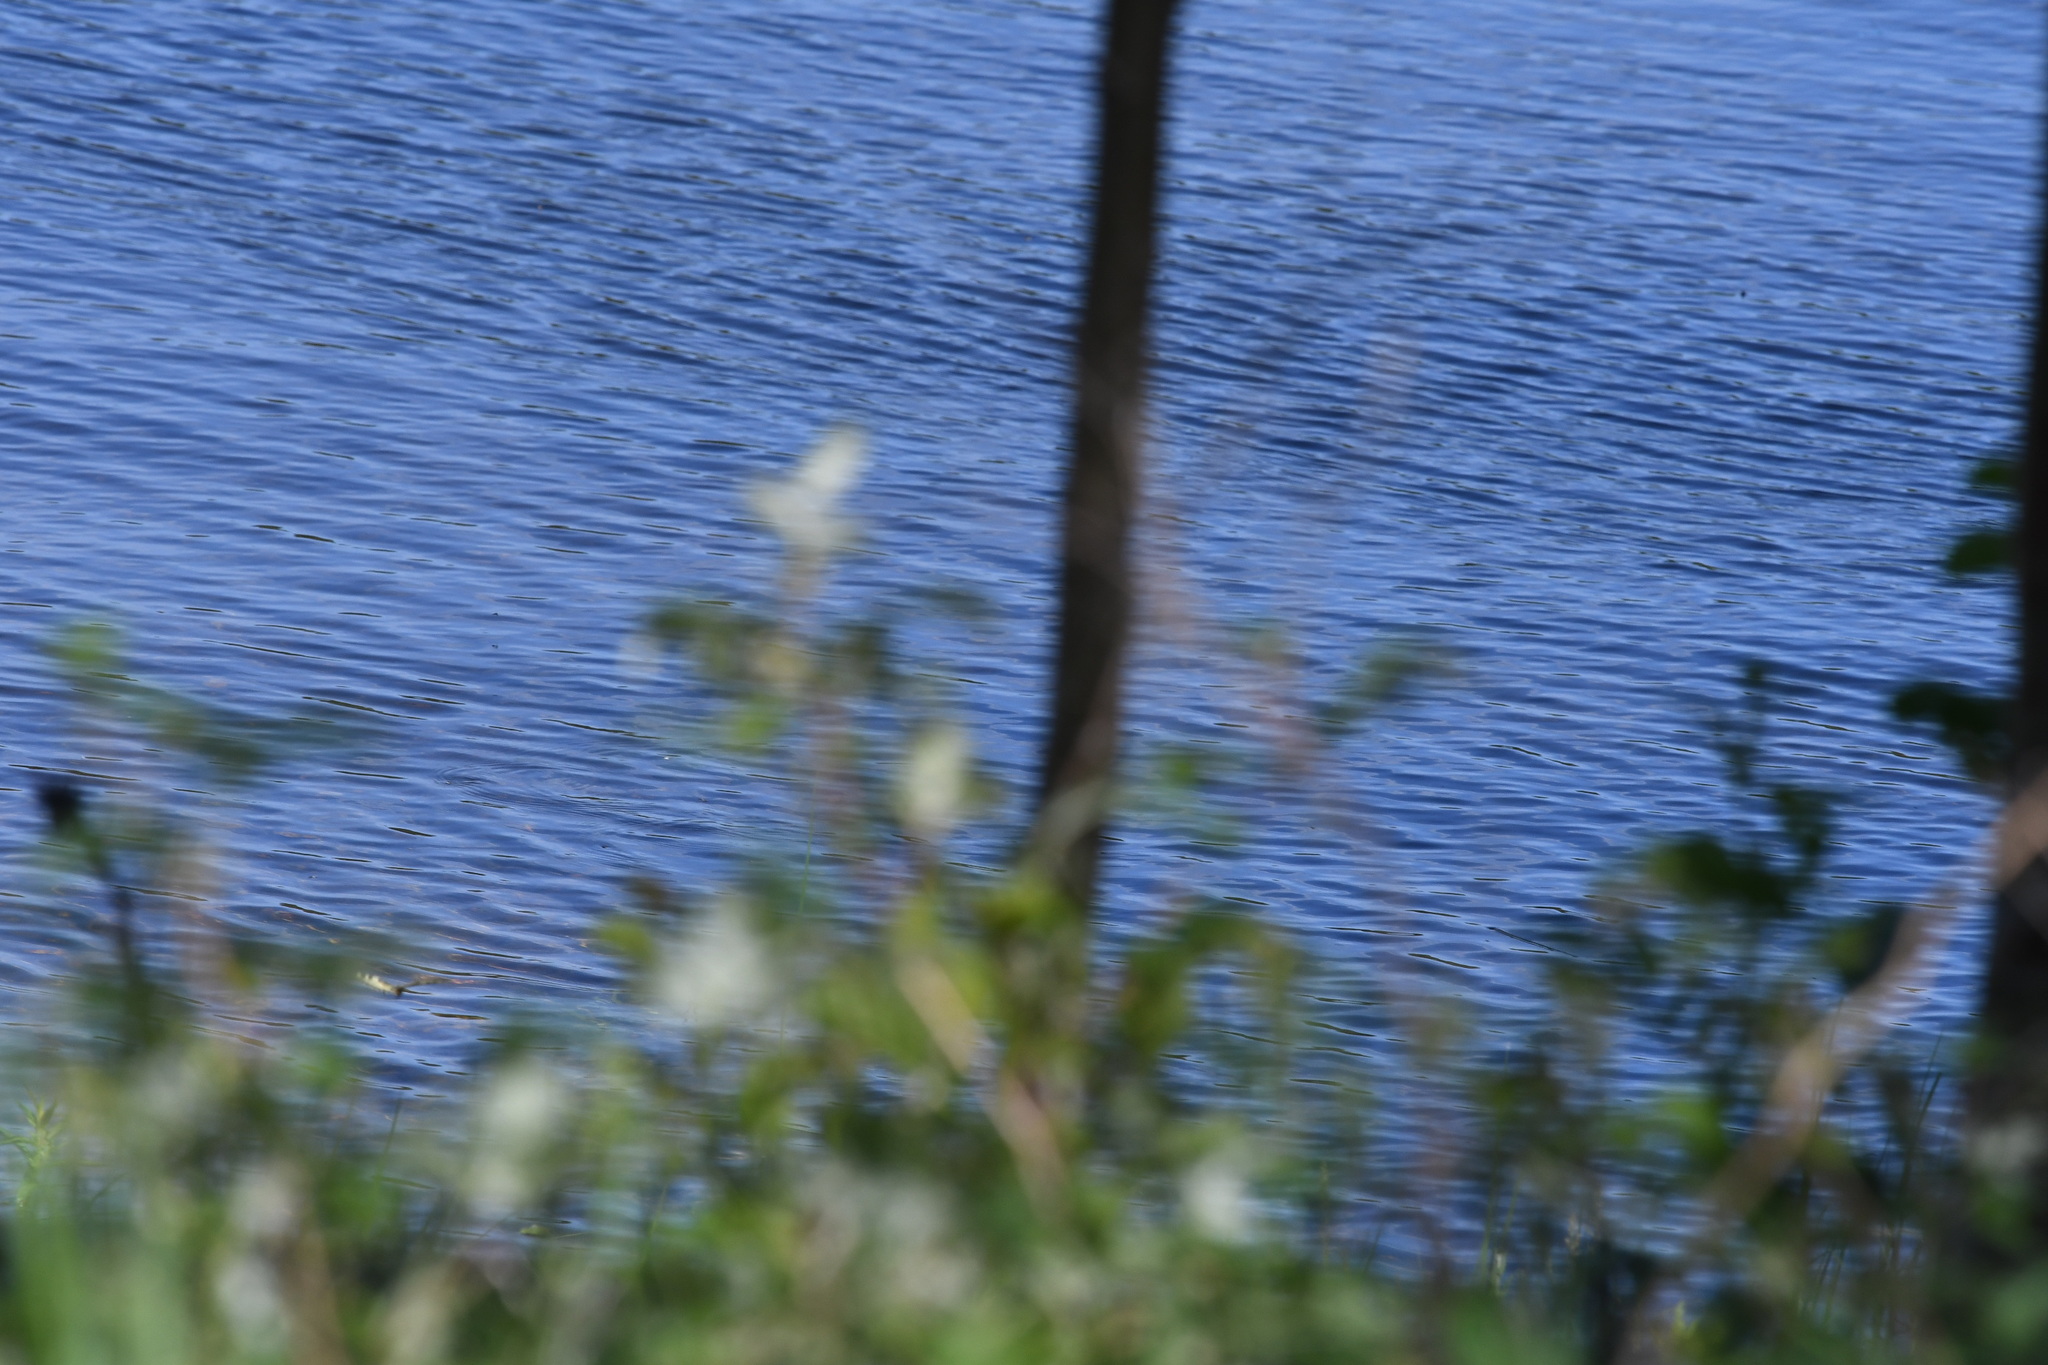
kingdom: Animalia
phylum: Arthropoda
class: Insecta
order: Lepidoptera
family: Papilionidae
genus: Papilio
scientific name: Papilio machaon
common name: Swallowtail
